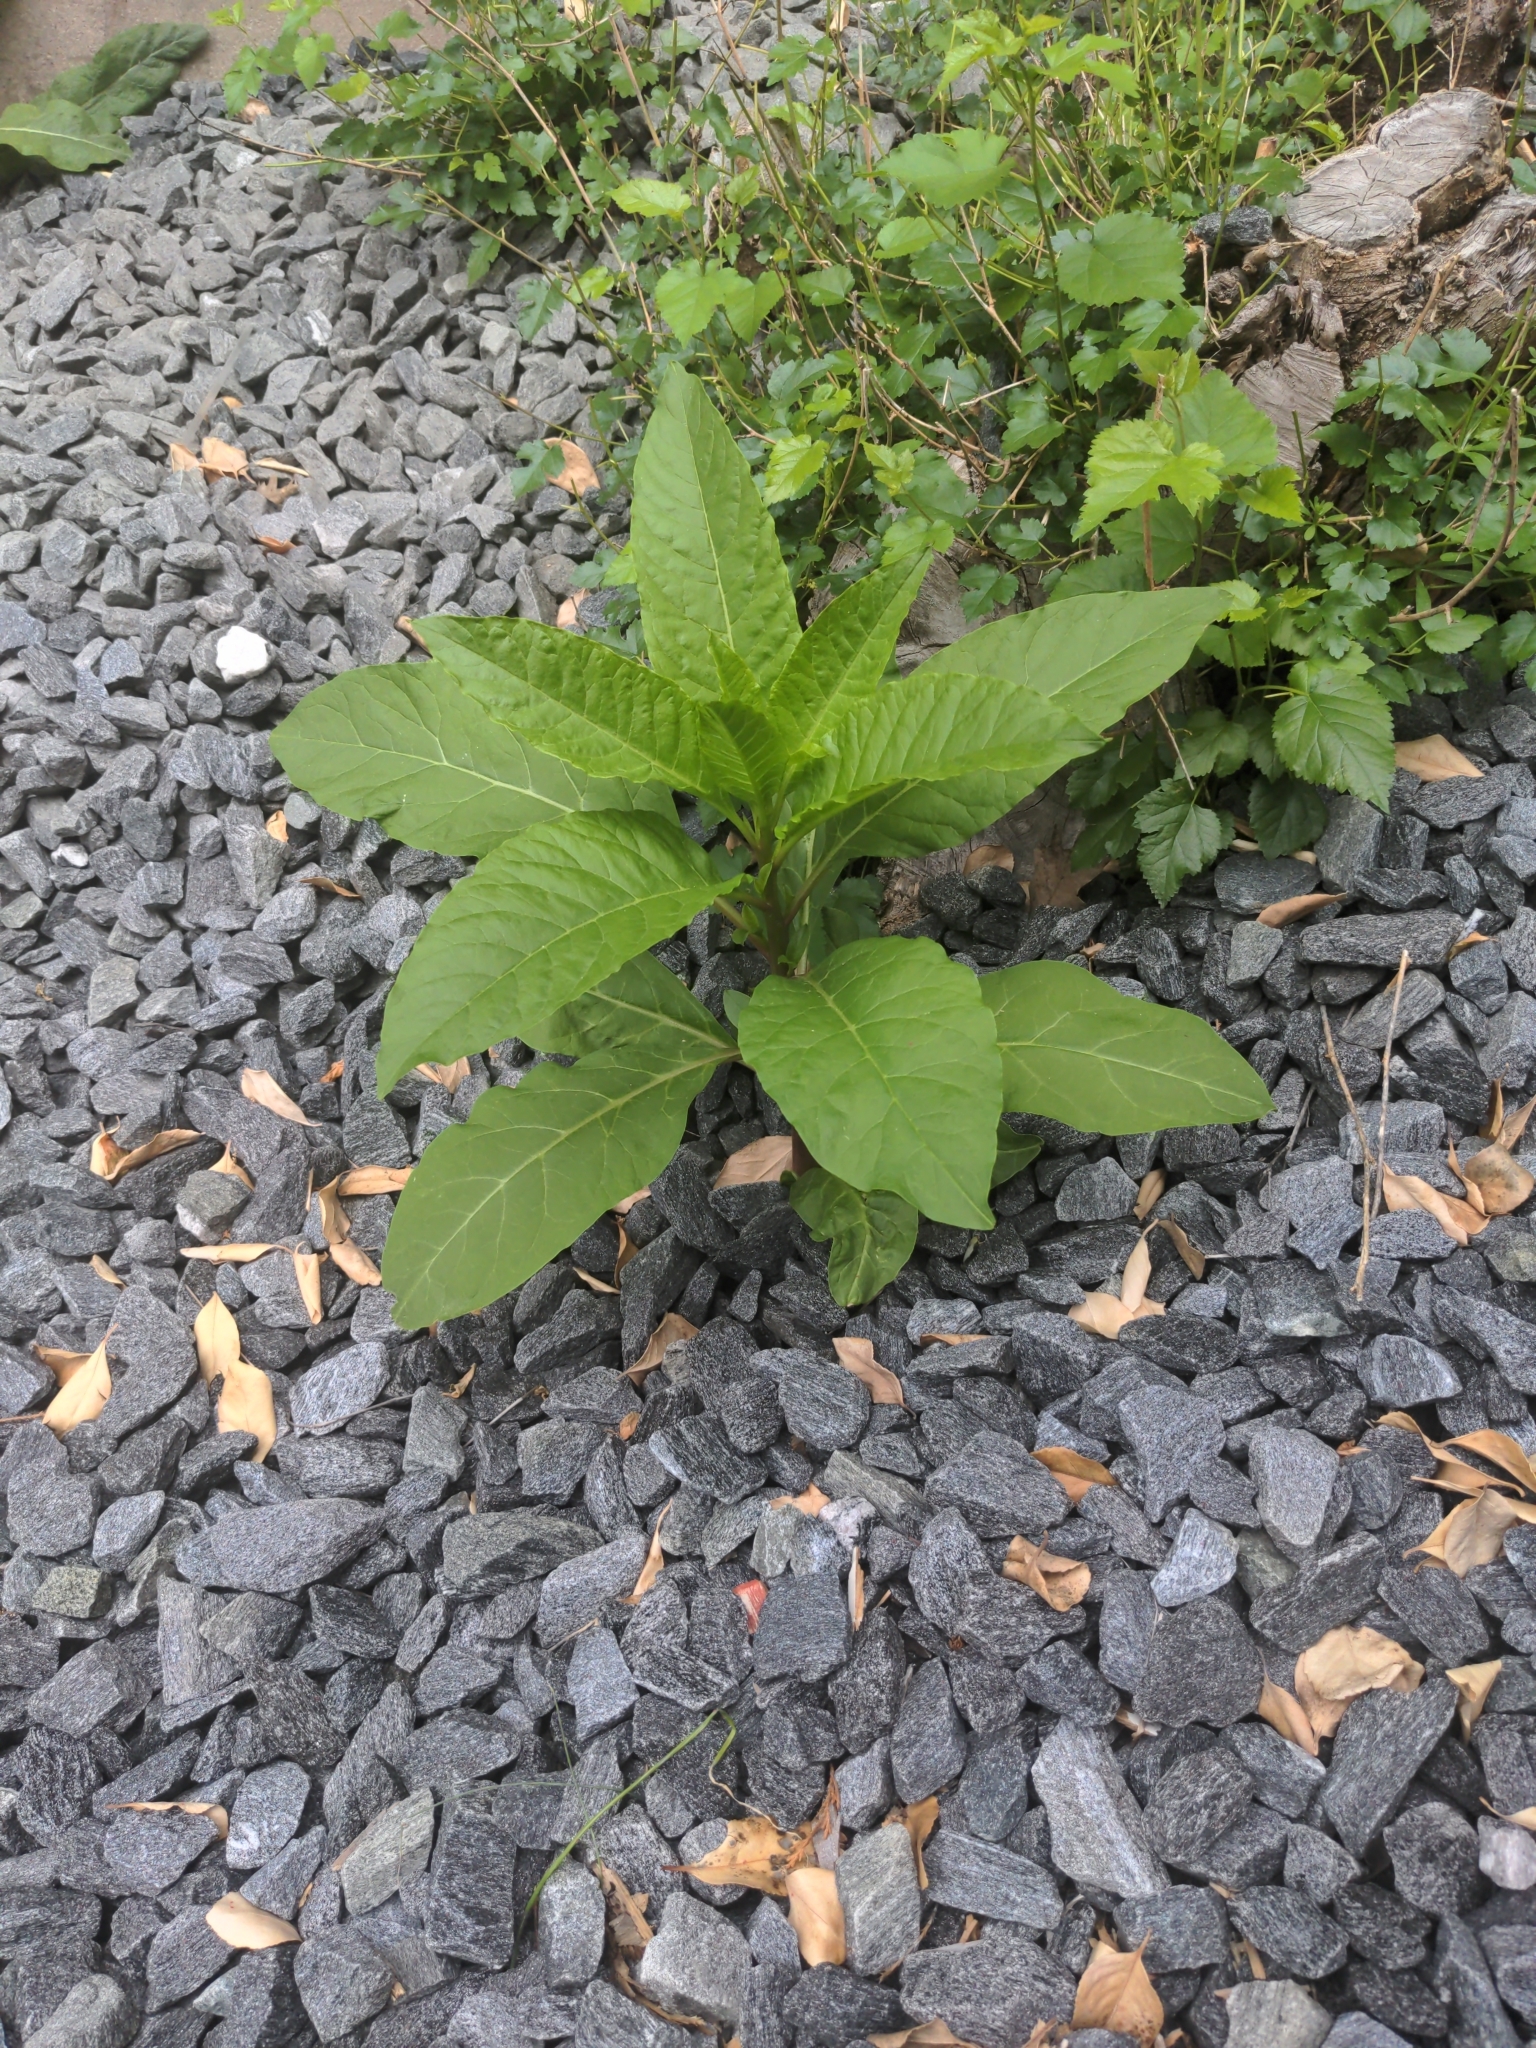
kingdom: Plantae
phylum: Tracheophyta
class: Magnoliopsida
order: Caryophyllales
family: Phytolaccaceae
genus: Phytolacca
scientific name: Phytolacca americana
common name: American pokeweed
